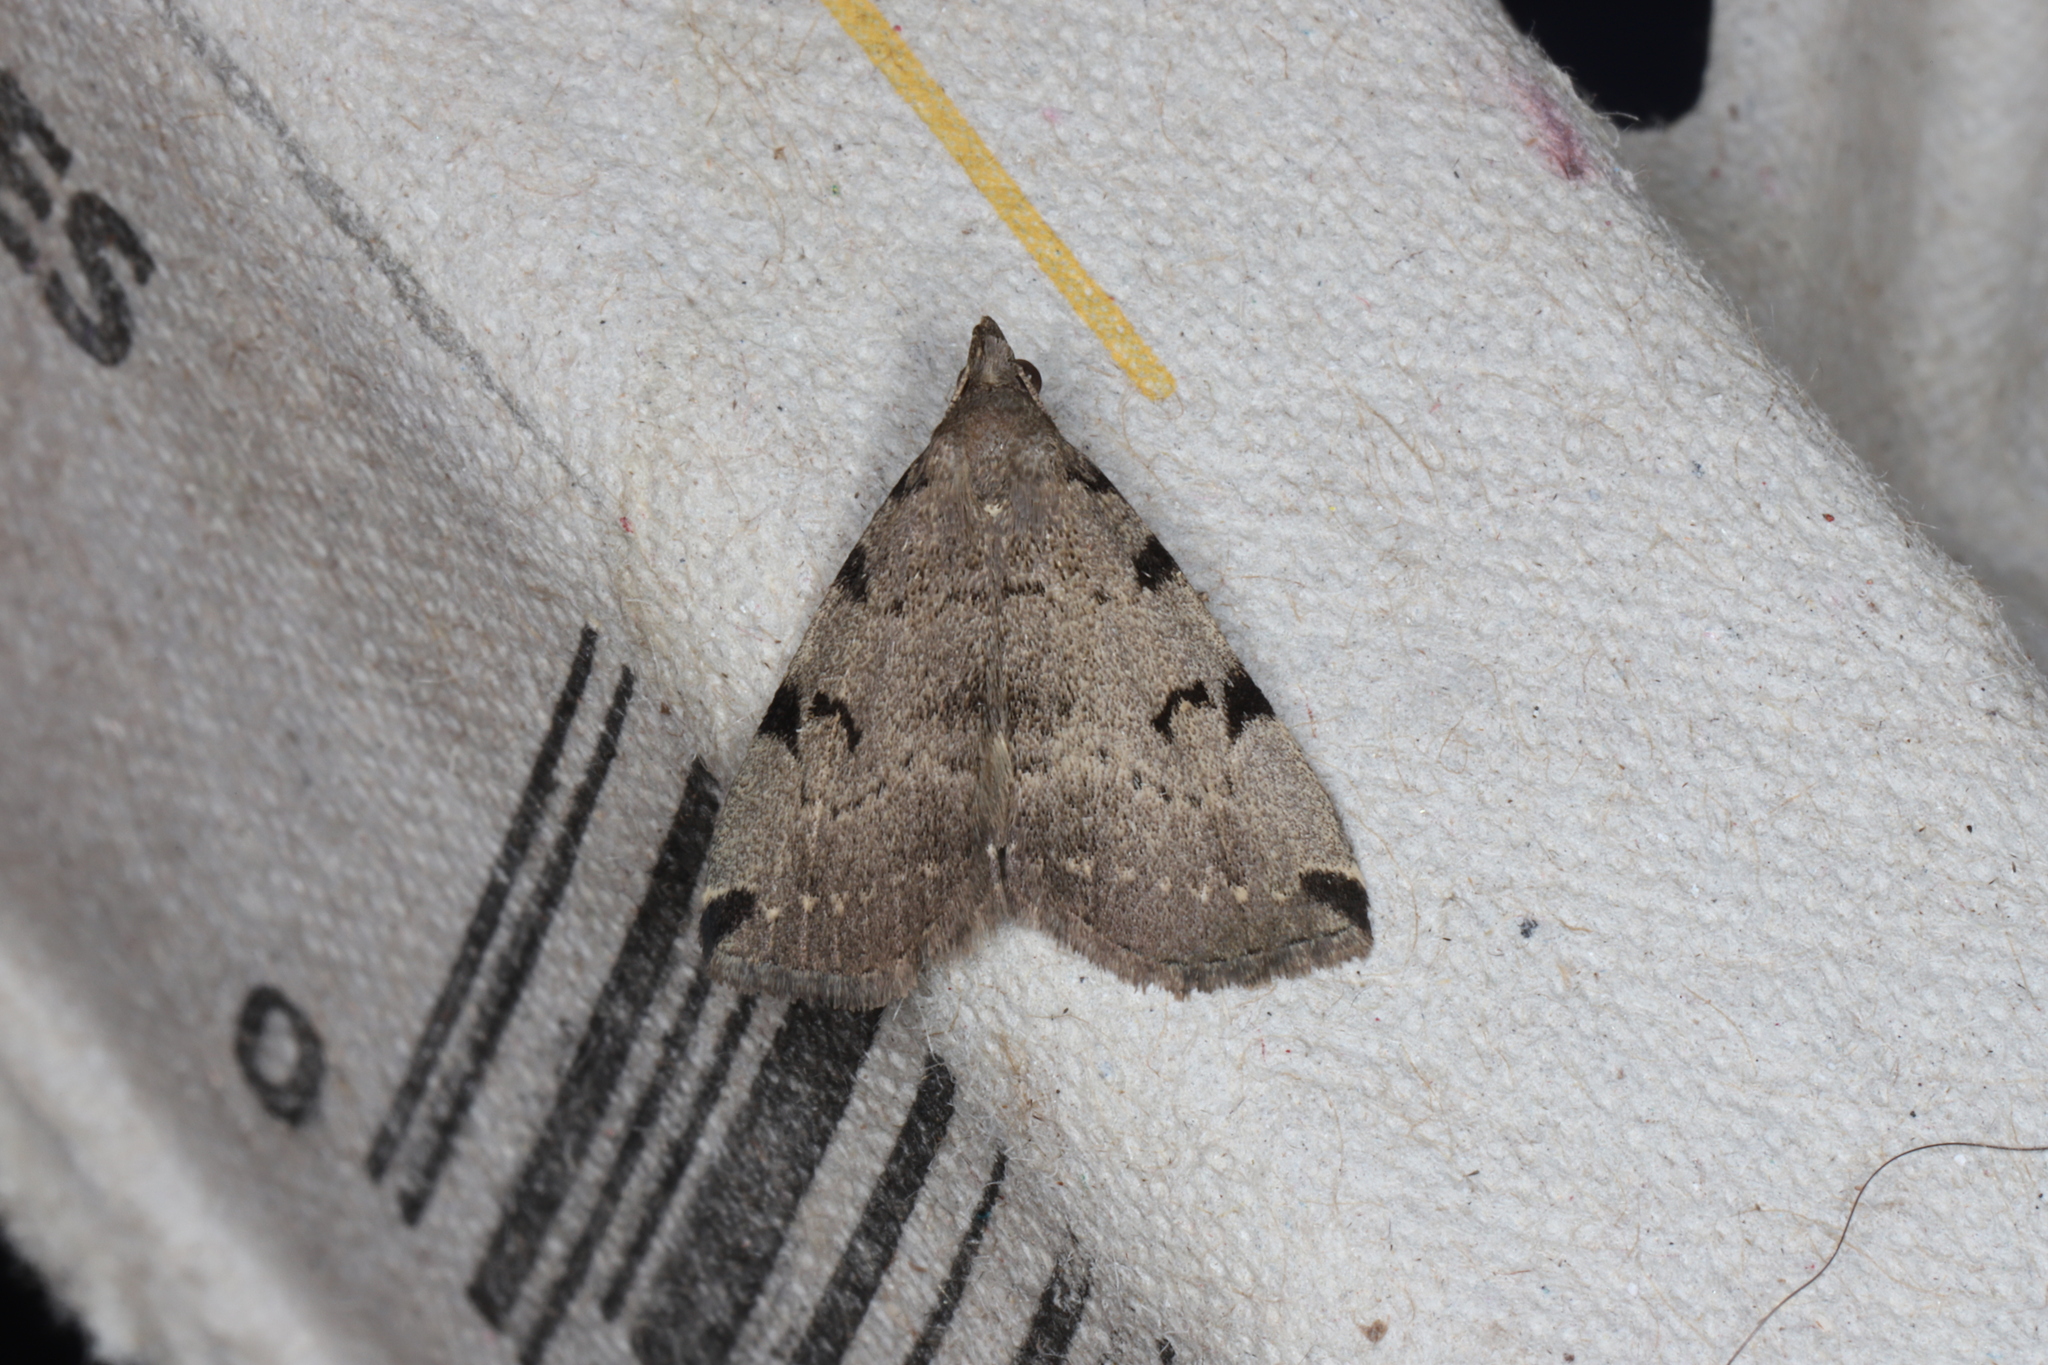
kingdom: Animalia
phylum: Arthropoda
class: Insecta
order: Lepidoptera
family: Erebidae
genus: Zanclognatha
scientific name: Zanclognatha lituralis
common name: Lettered fan-foot
